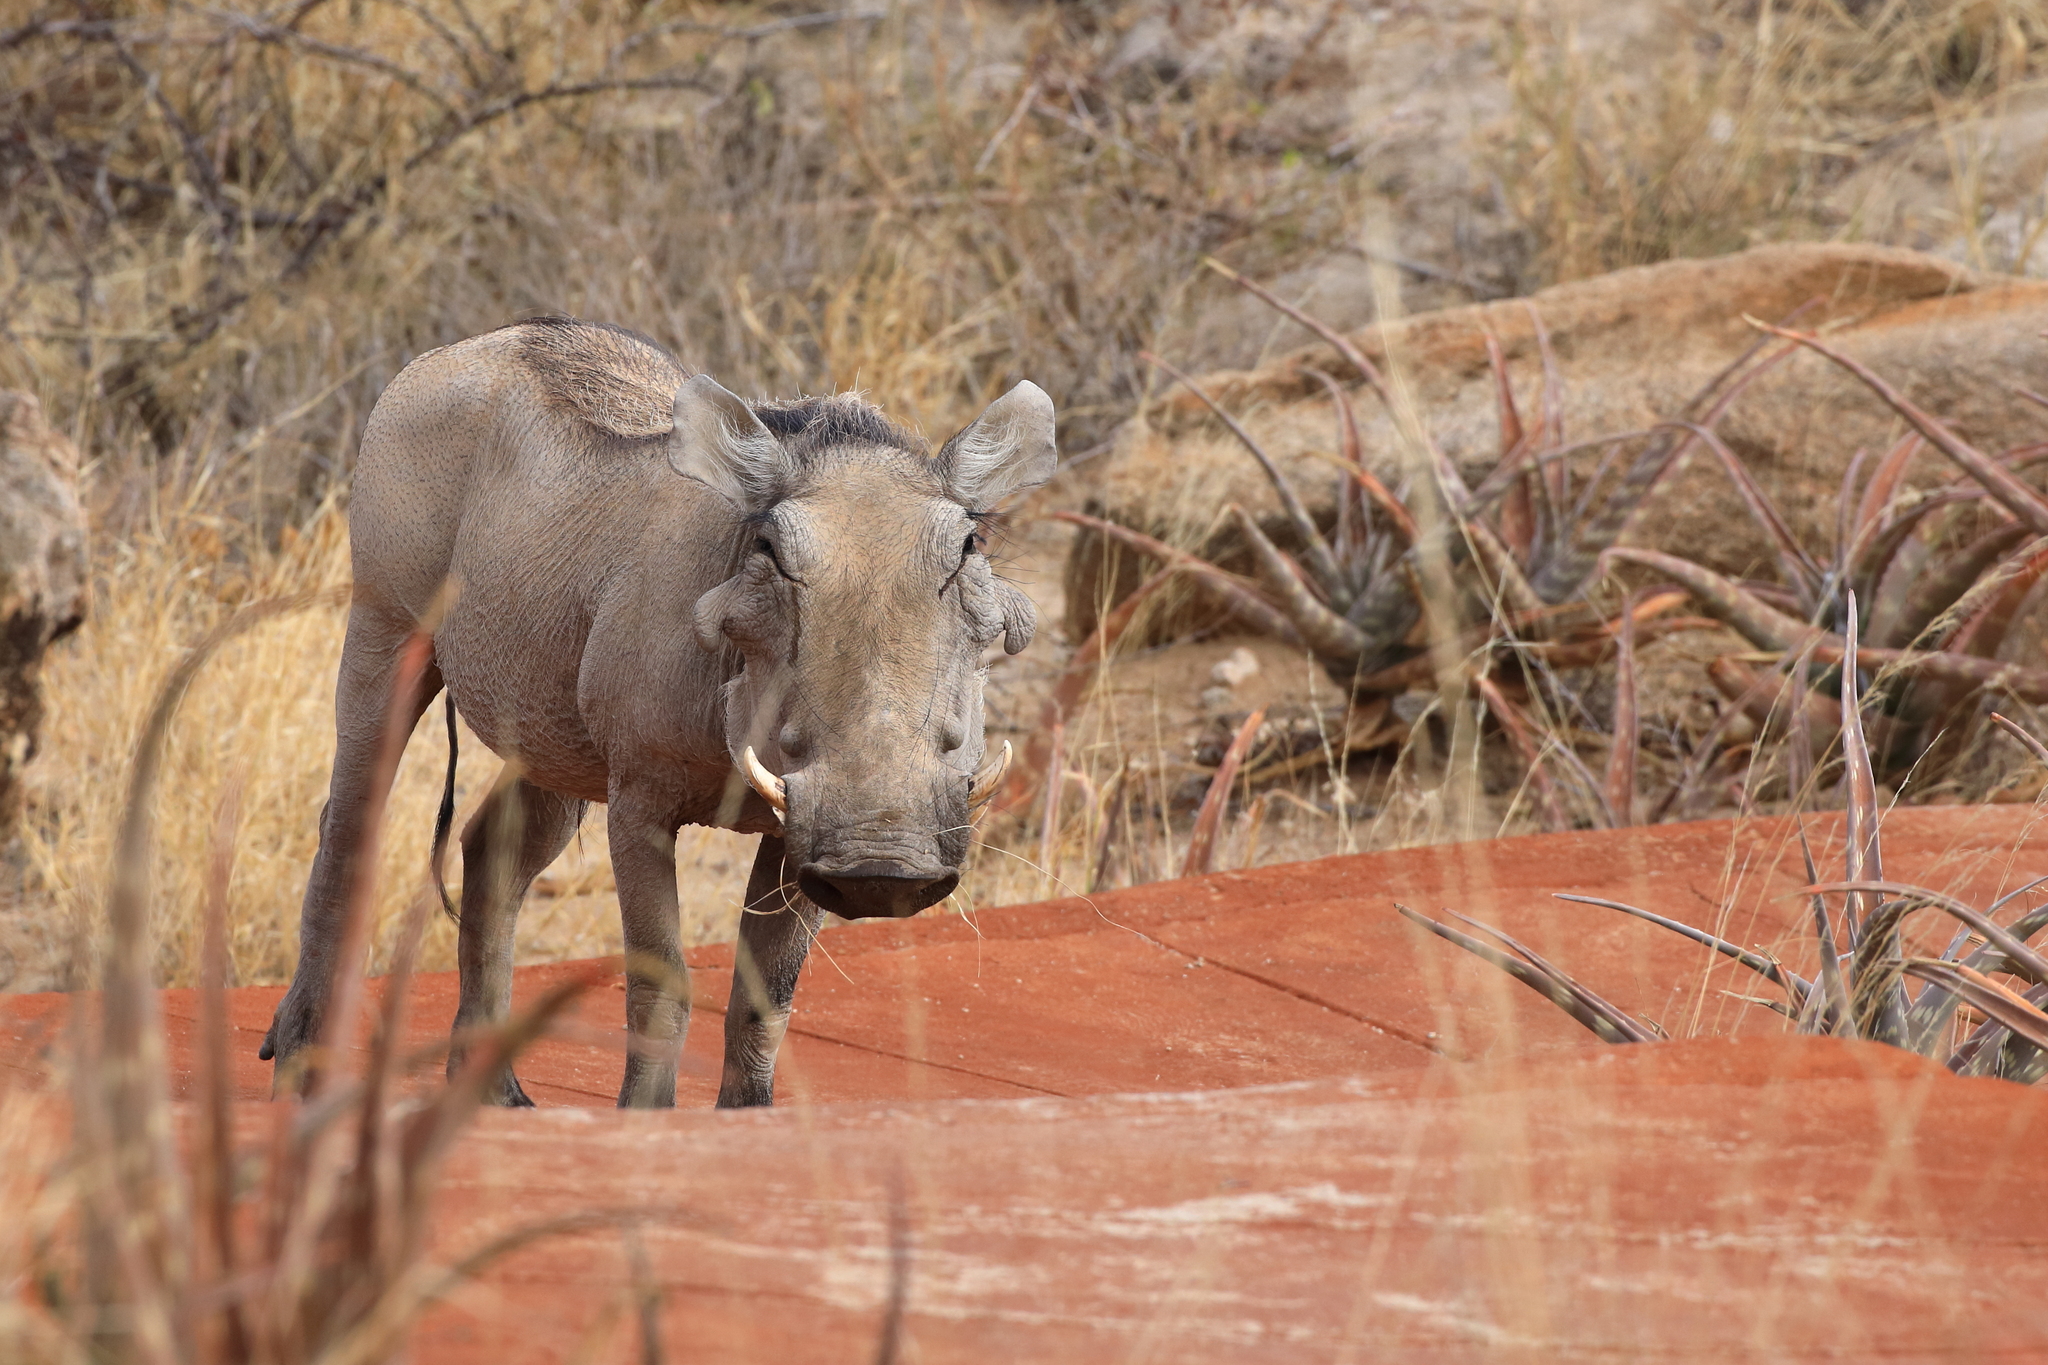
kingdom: Animalia
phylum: Chordata
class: Mammalia
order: Artiodactyla
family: Suidae
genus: Phacochoerus
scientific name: Phacochoerus aethiopicus
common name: Desert warthog
